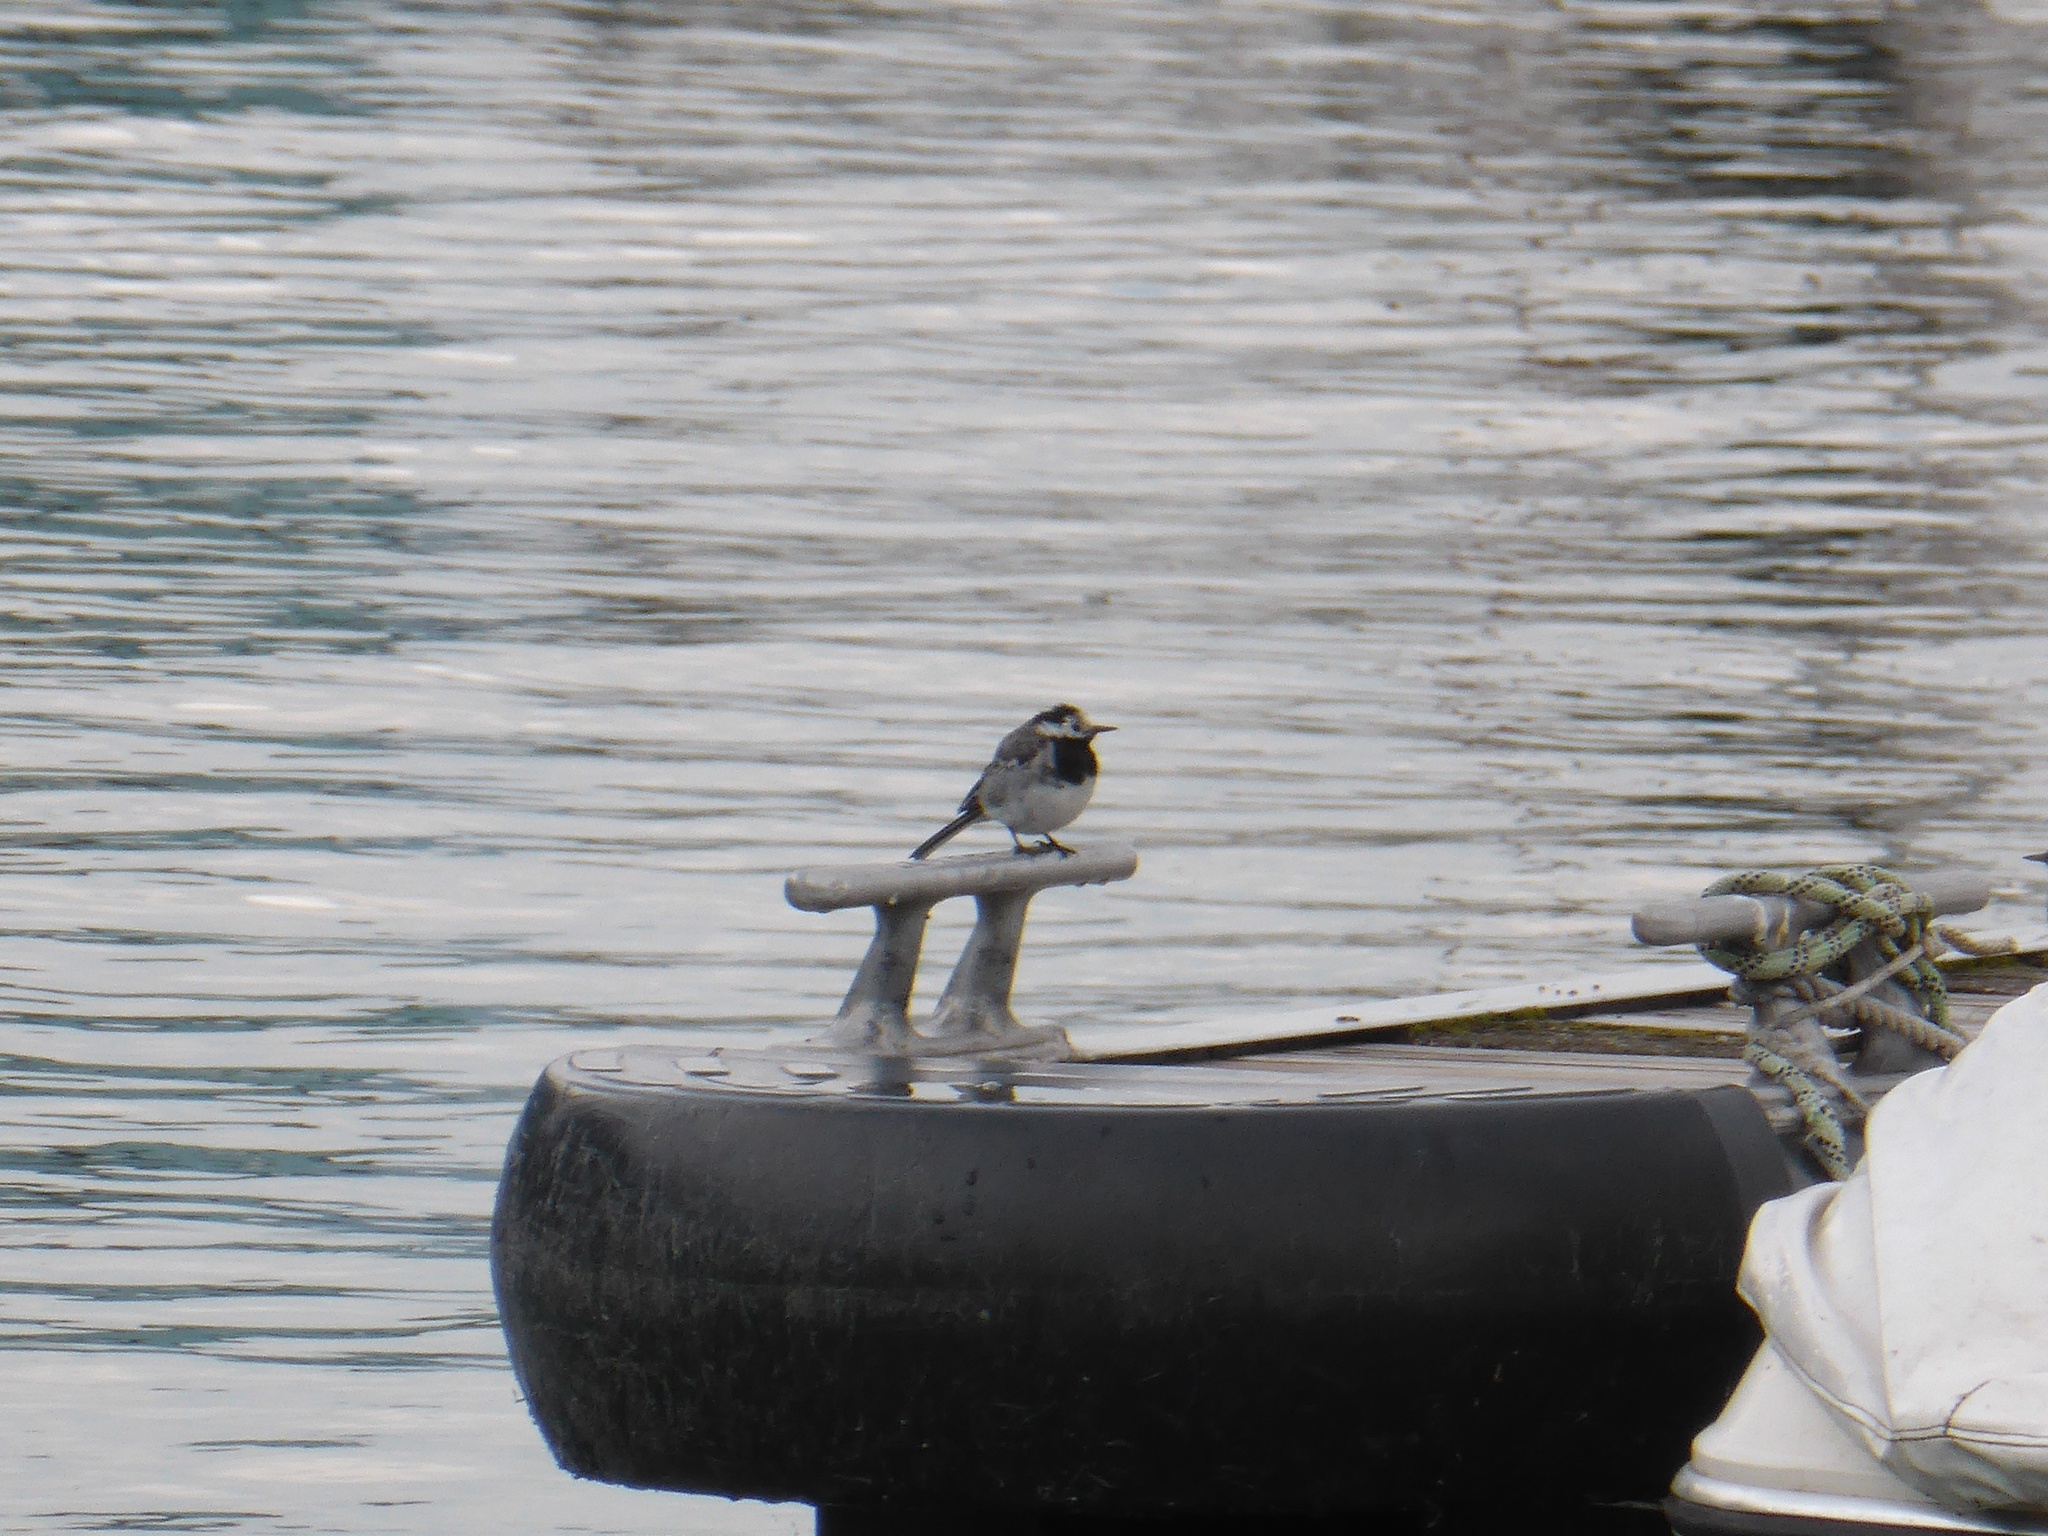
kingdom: Animalia
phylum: Chordata
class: Aves
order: Passeriformes
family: Motacillidae
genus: Motacilla
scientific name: Motacilla alba
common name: White wagtail
